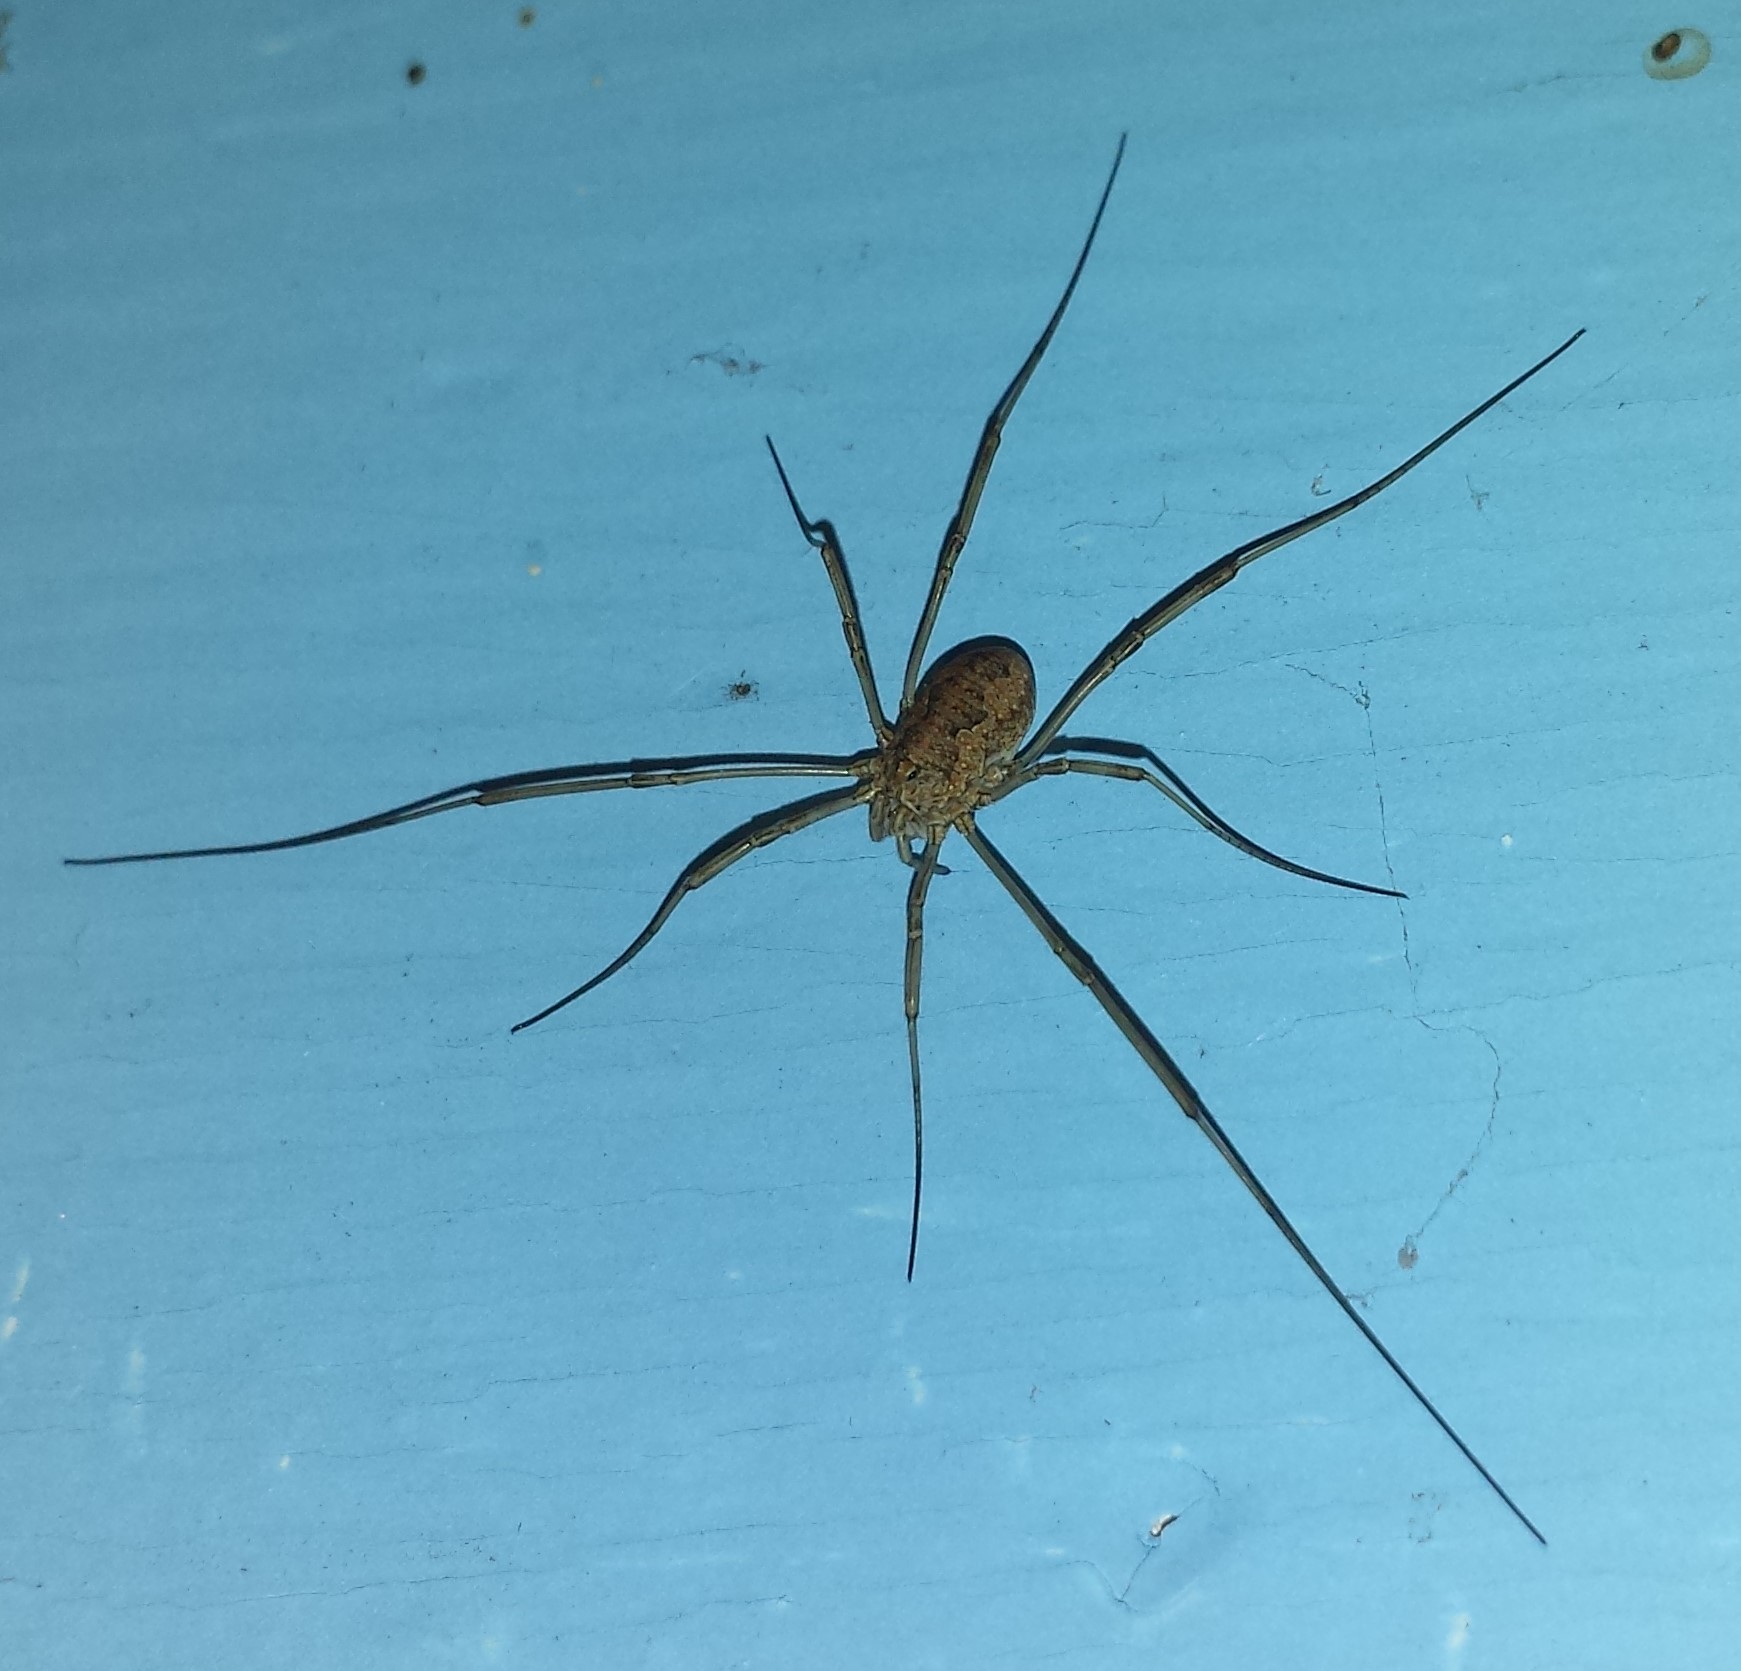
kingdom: Animalia
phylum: Arthropoda
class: Arachnida
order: Opiliones
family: Phalangiidae
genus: Phalangium
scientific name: Phalangium opilio
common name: Daddy longleg
